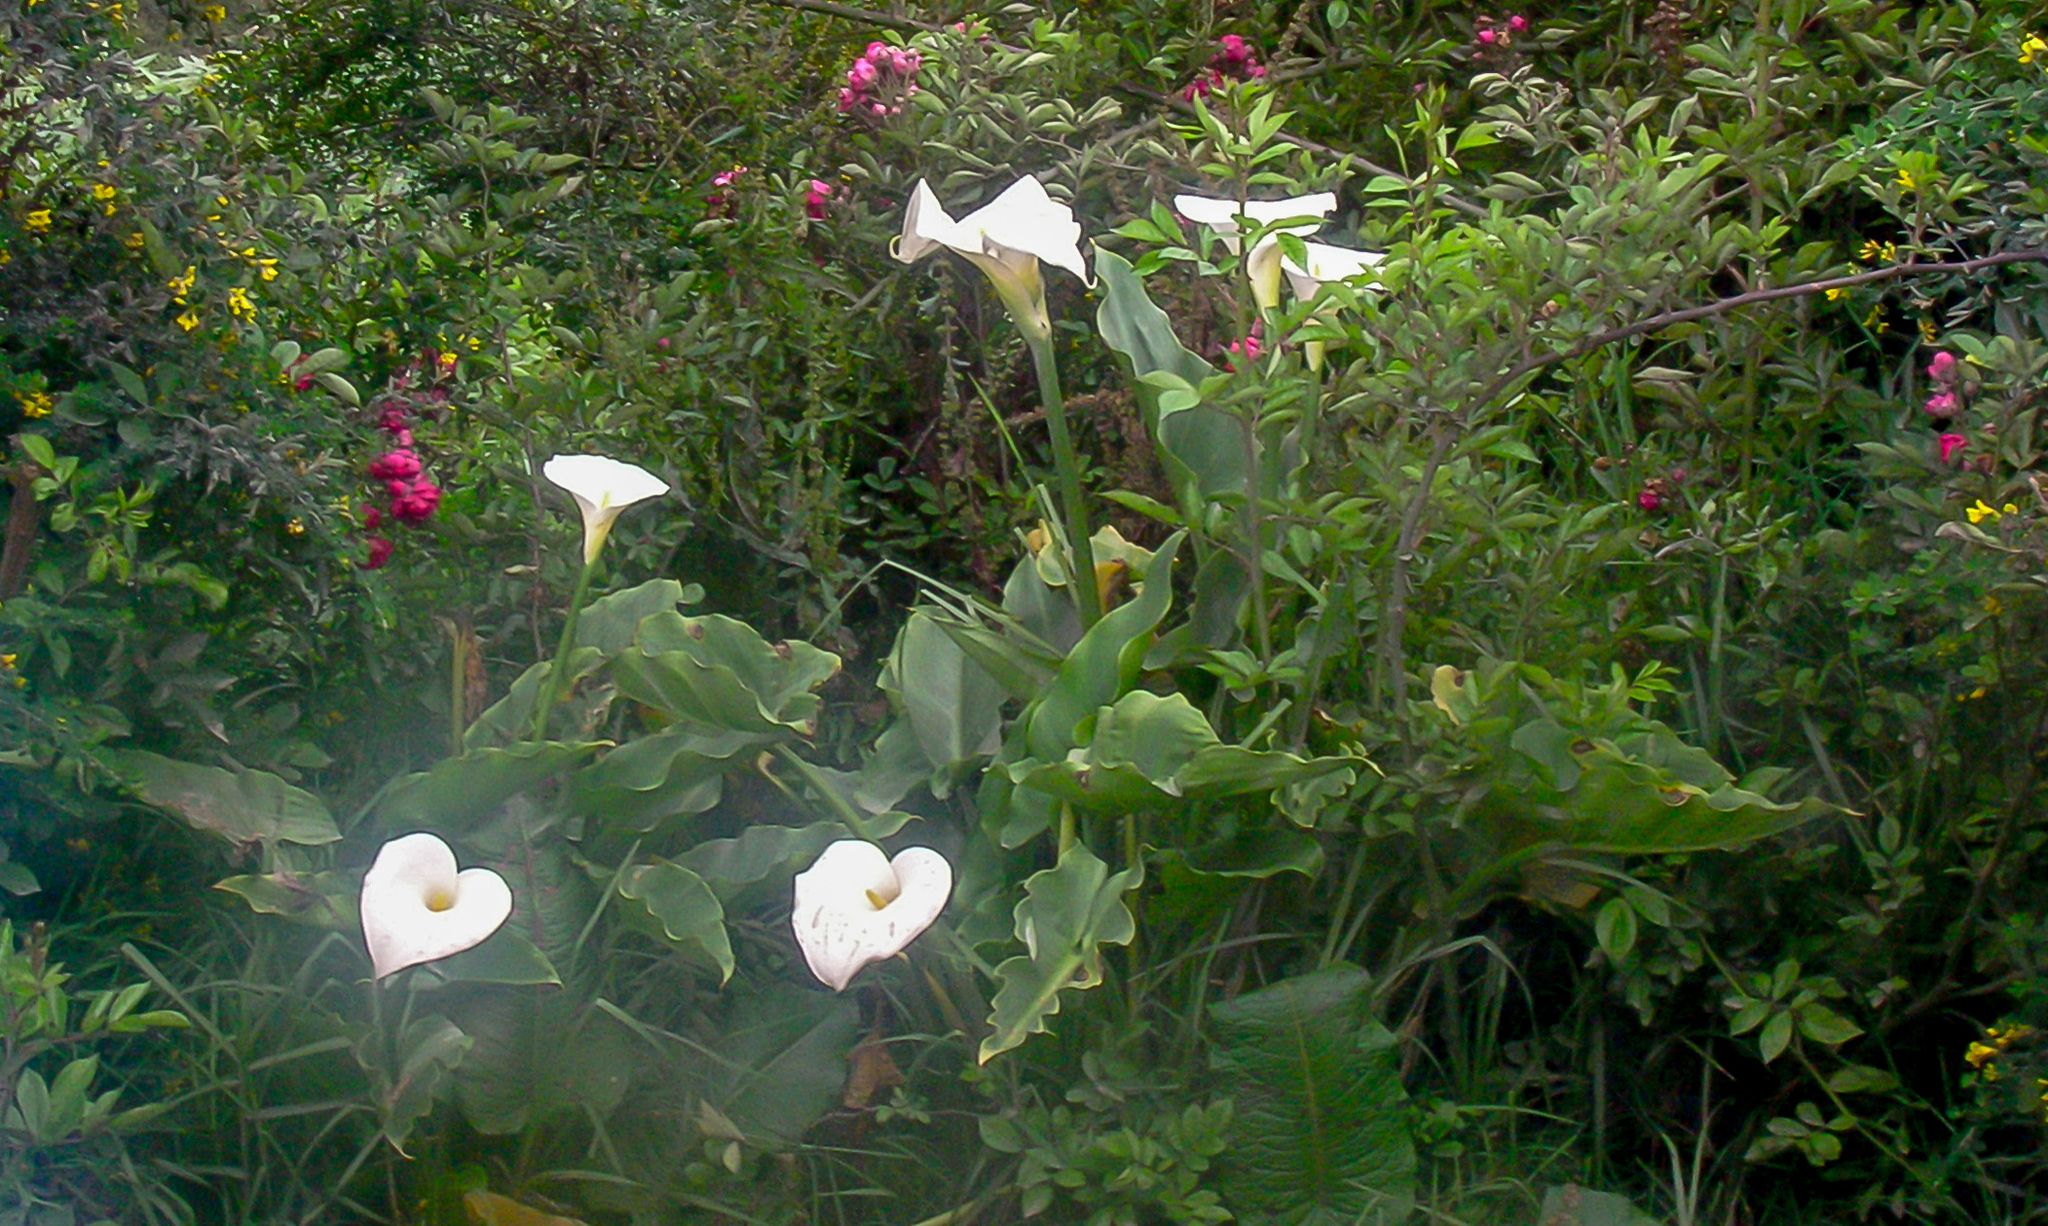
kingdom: Plantae
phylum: Tracheophyta
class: Liliopsida
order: Alismatales
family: Araceae
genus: Zantedeschia
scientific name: Zantedeschia aethiopica
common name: Altar-lily
